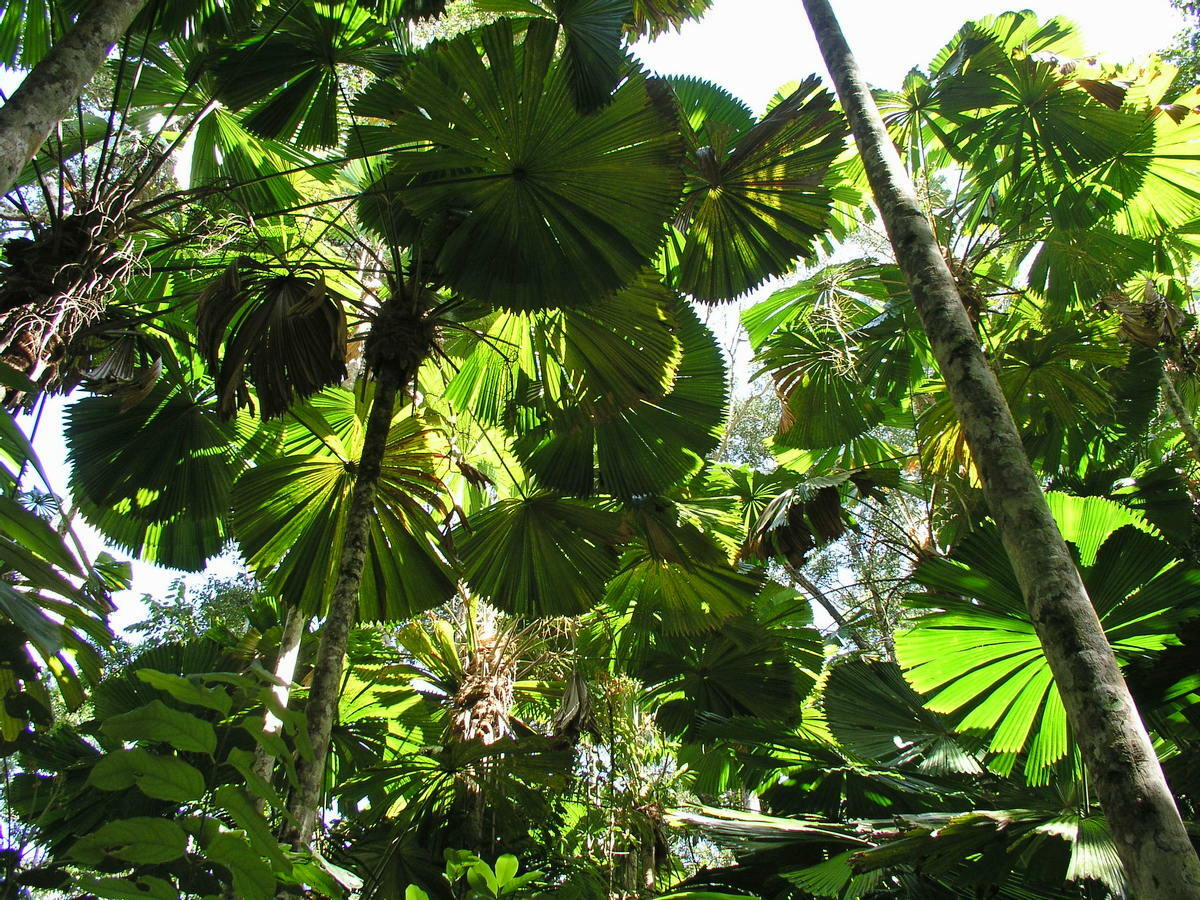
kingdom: Plantae
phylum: Tracheophyta
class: Liliopsida
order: Arecales
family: Arecaceae
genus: Licuala
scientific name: Licuala ramsayi
